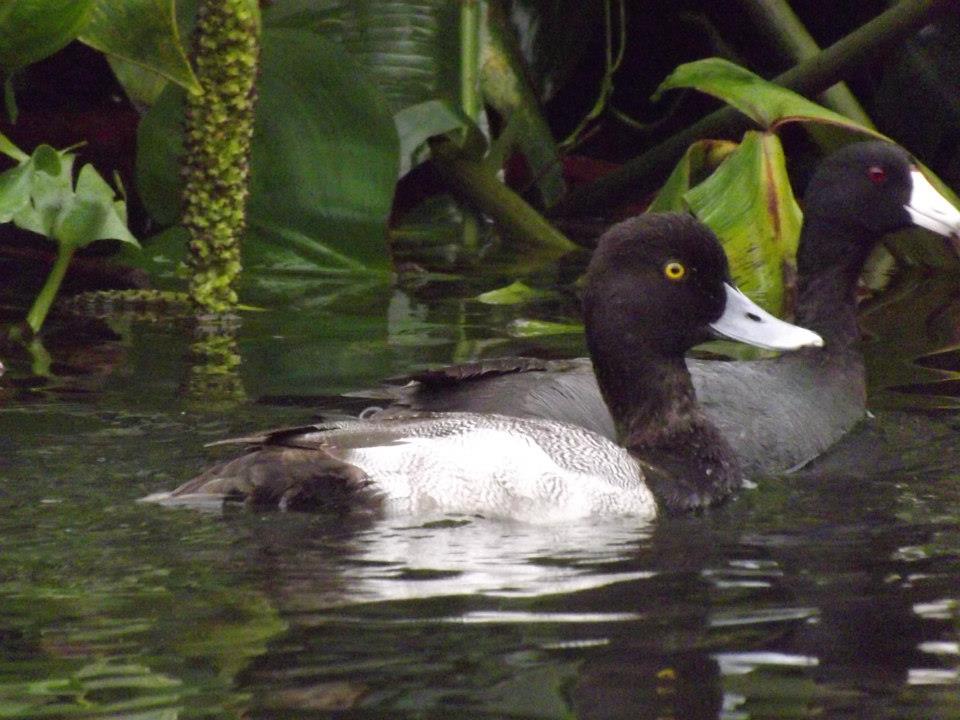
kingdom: Animalia
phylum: Chordata
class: Aves
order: Anseriformes
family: Anatidae
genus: Aythya
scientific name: Aythya affinis
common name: Lesser scaup
